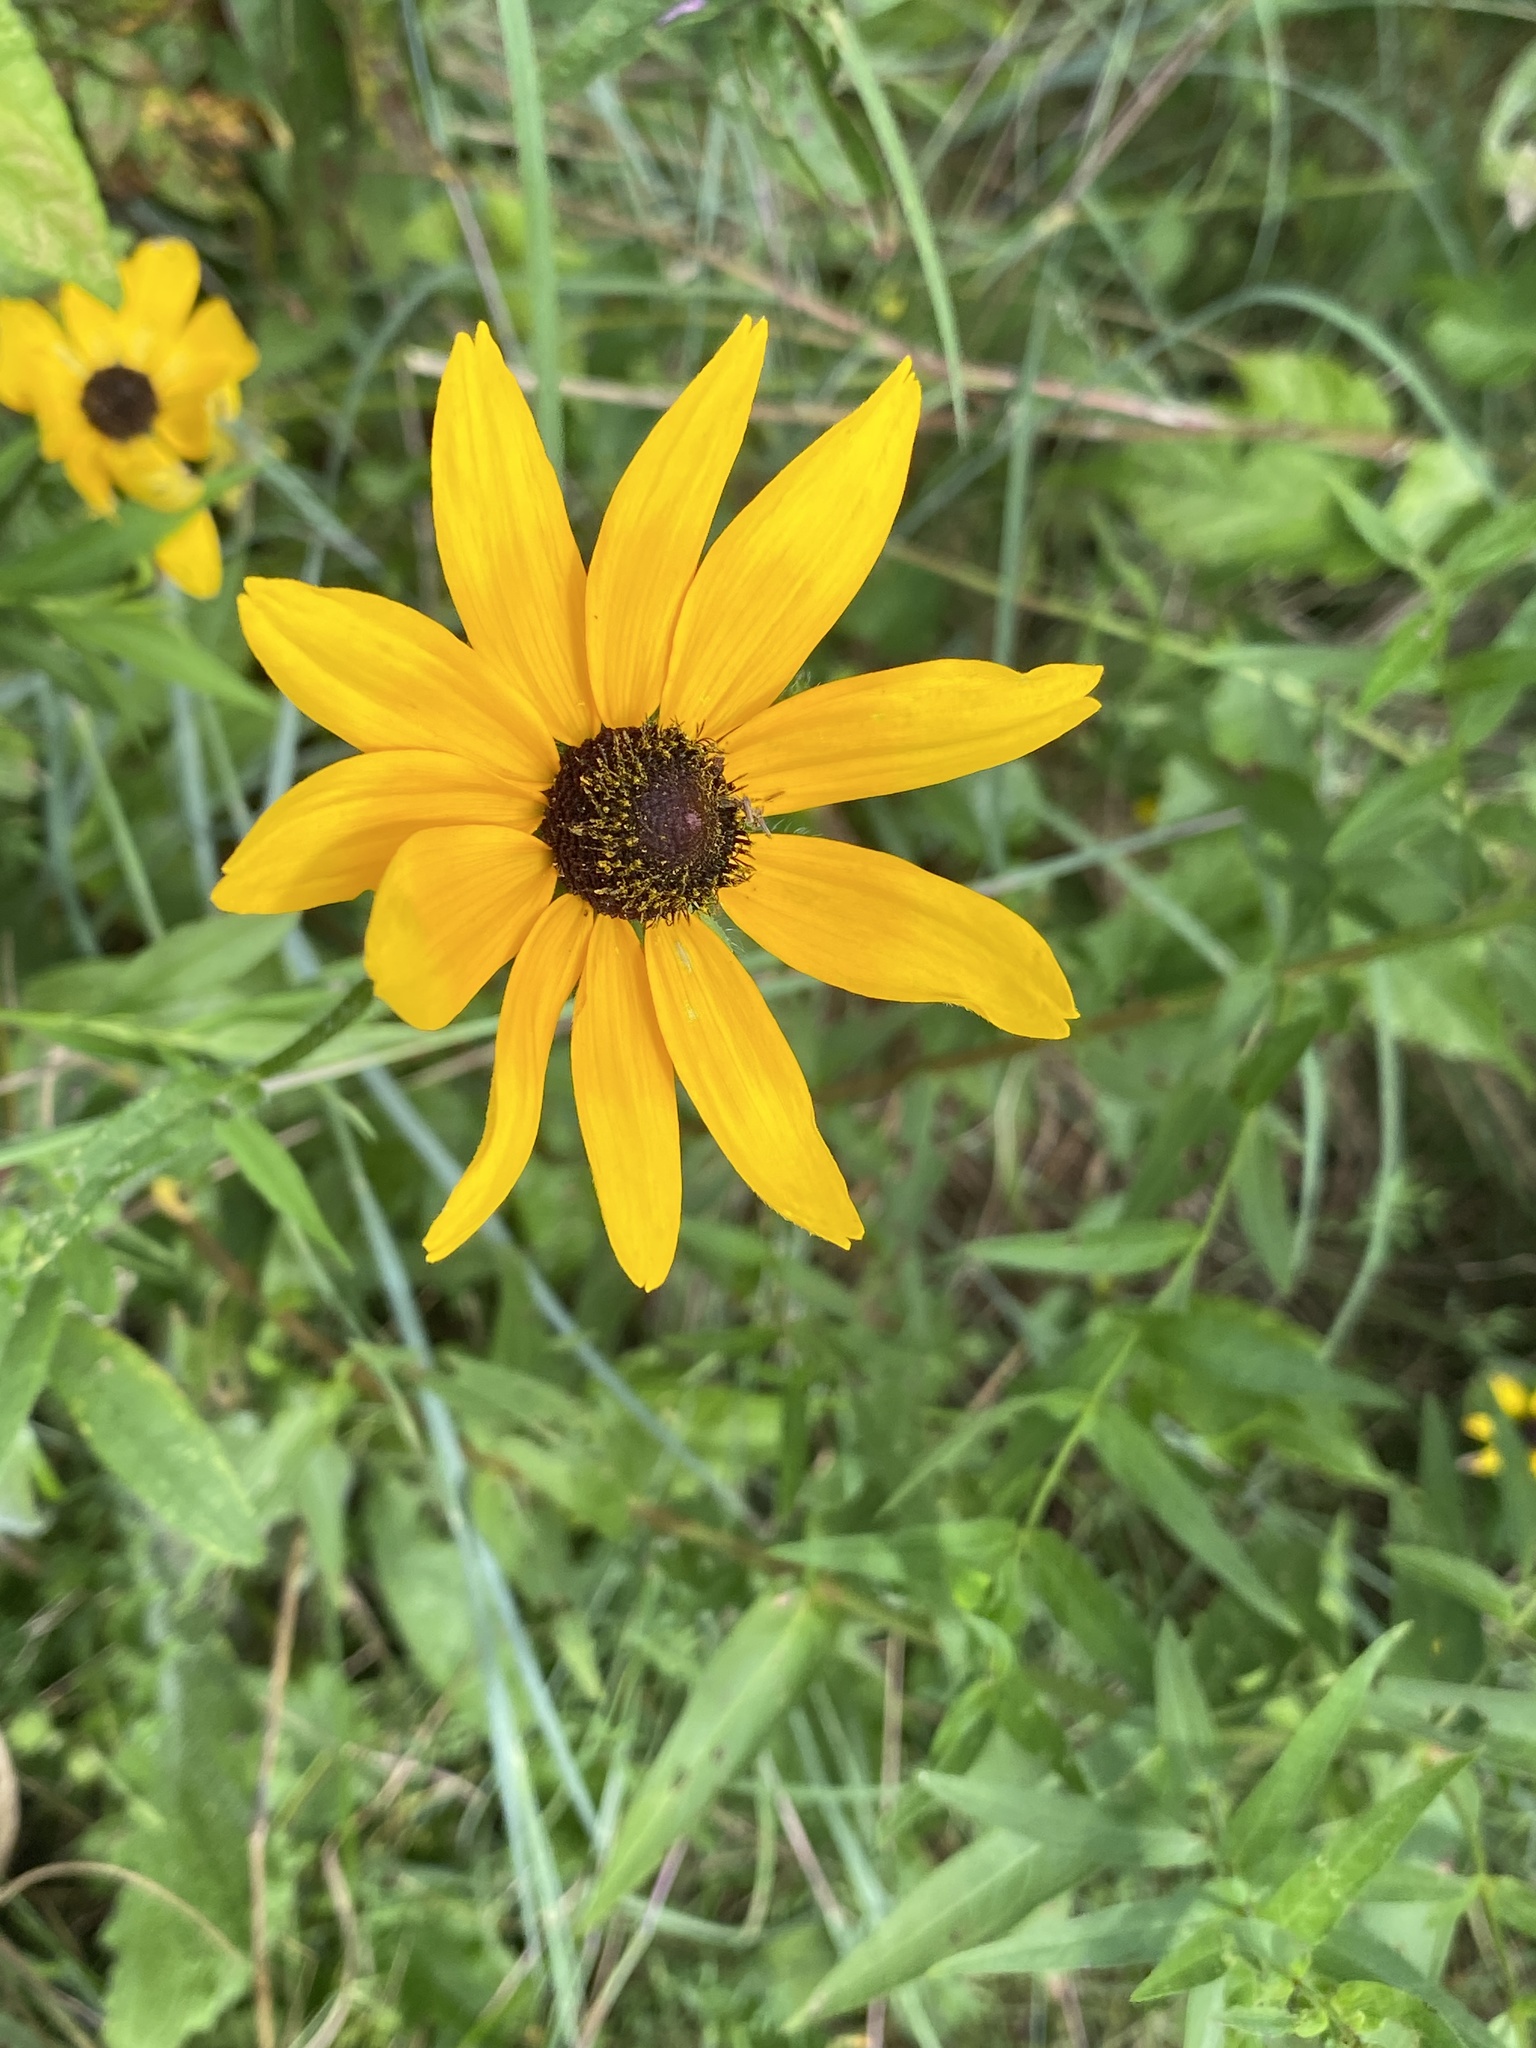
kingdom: Plantae
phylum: Tracheophyta
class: Magnoliopsida
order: Asterales
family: Asteraceae
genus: Rudbeckia
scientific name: Rudbeckia hirta
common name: Black-eyed-susan
